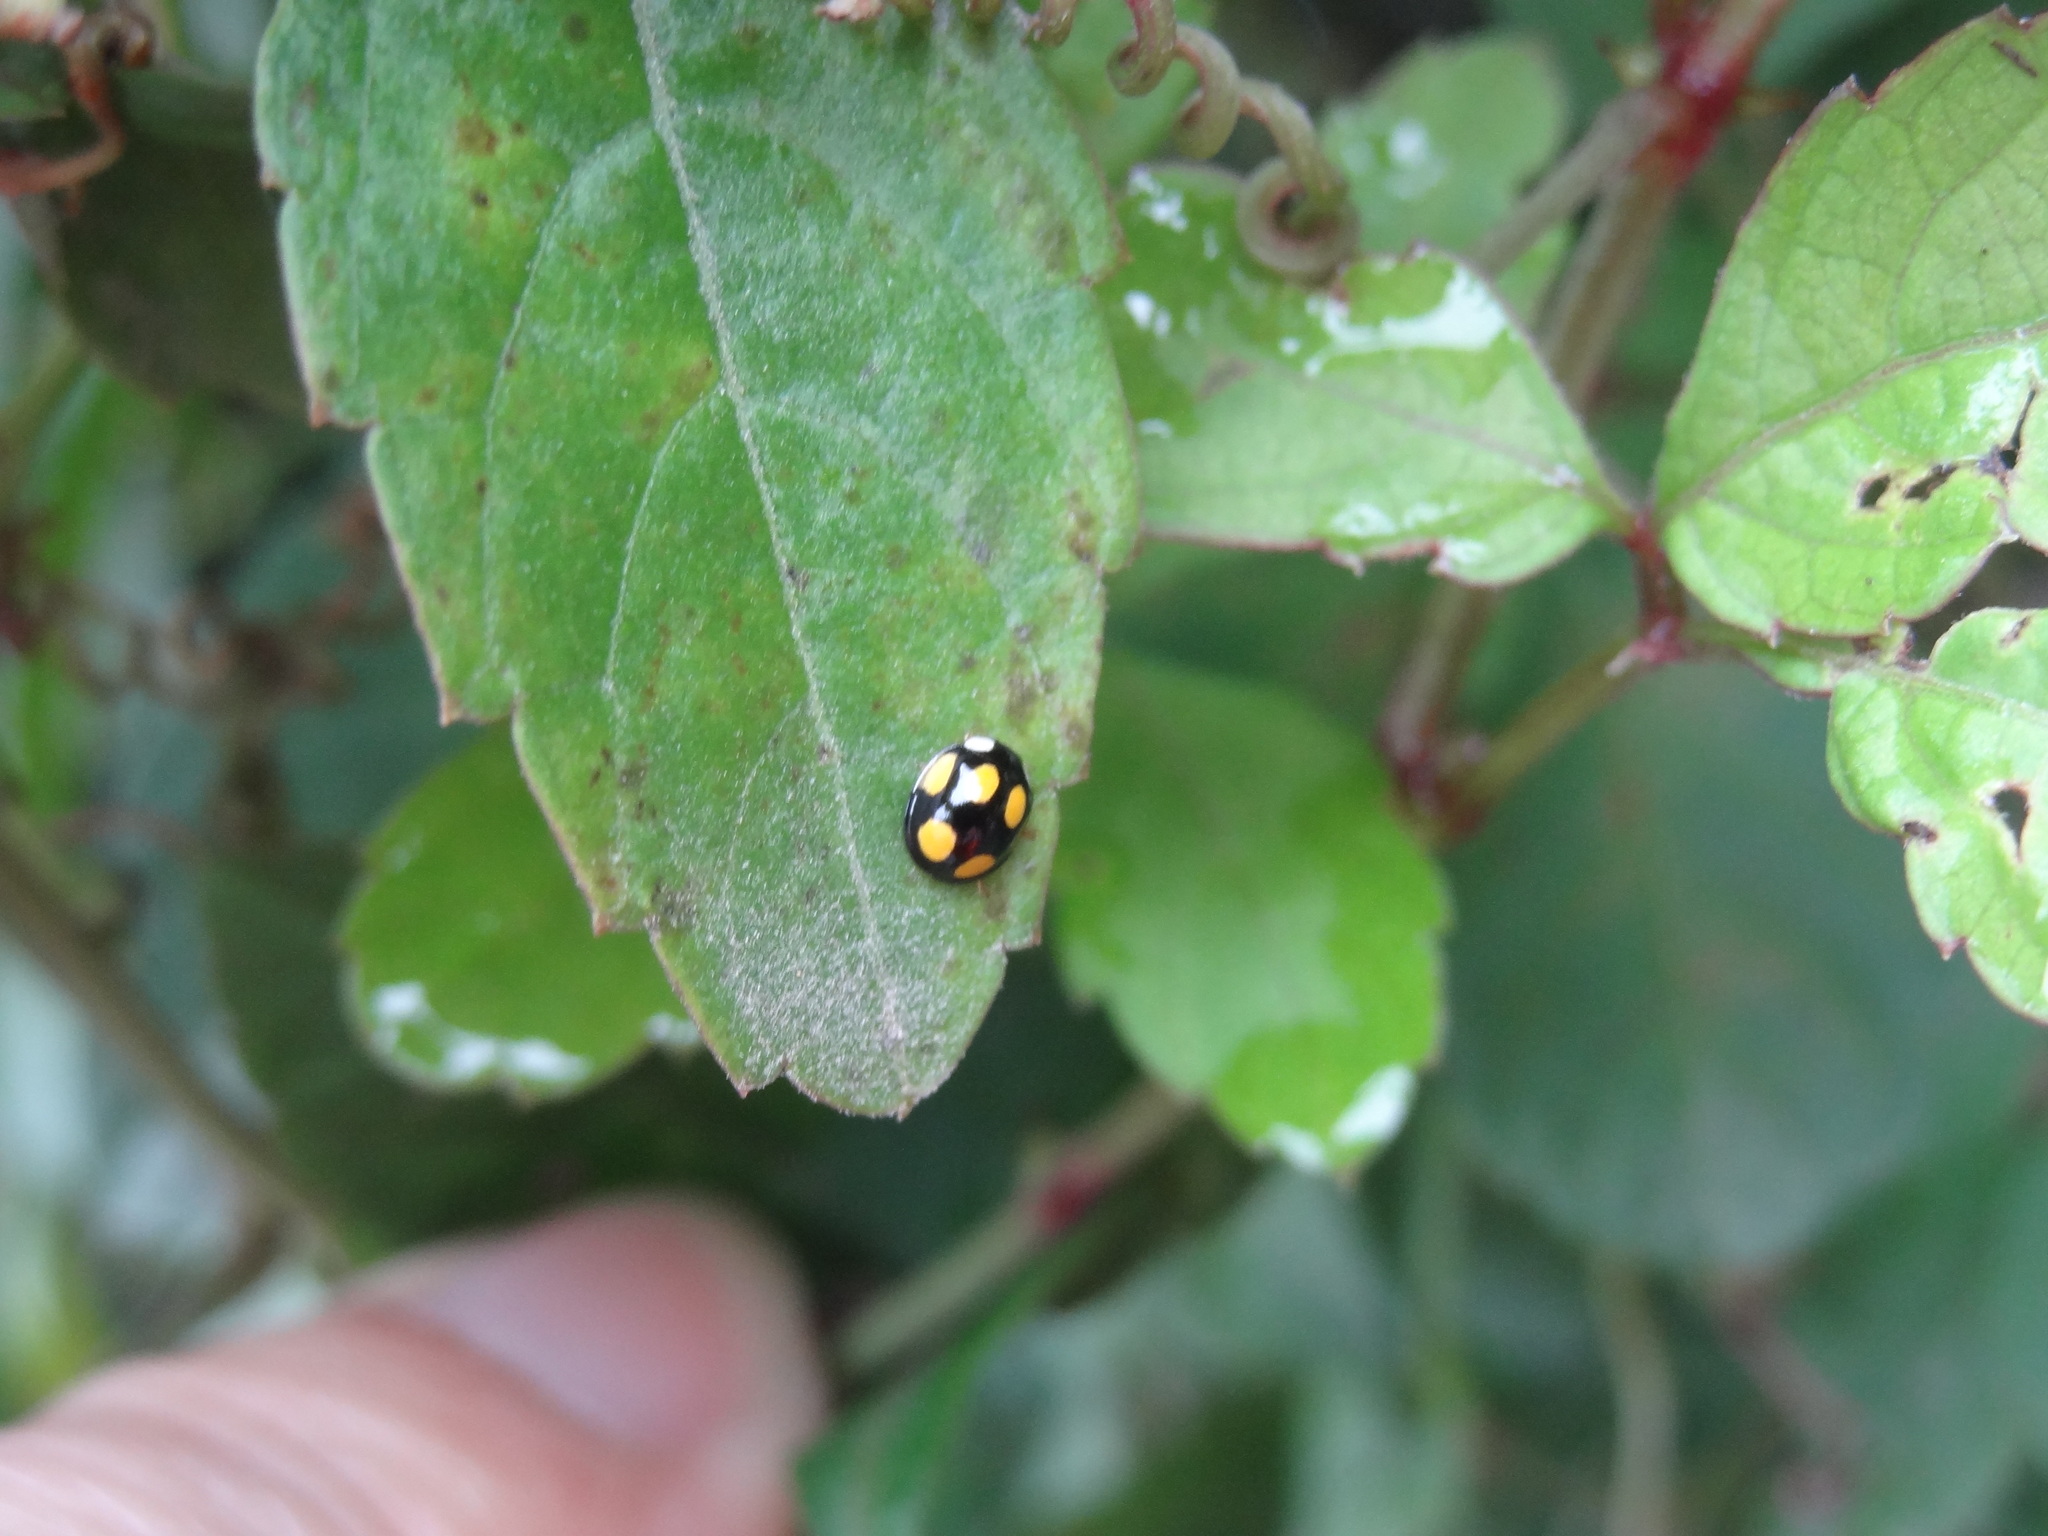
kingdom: Animalia
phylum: Arthropoda
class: Insecta
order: Coleoptera
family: Coccinellidae
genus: Oenopia
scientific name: Oenopia formosana
